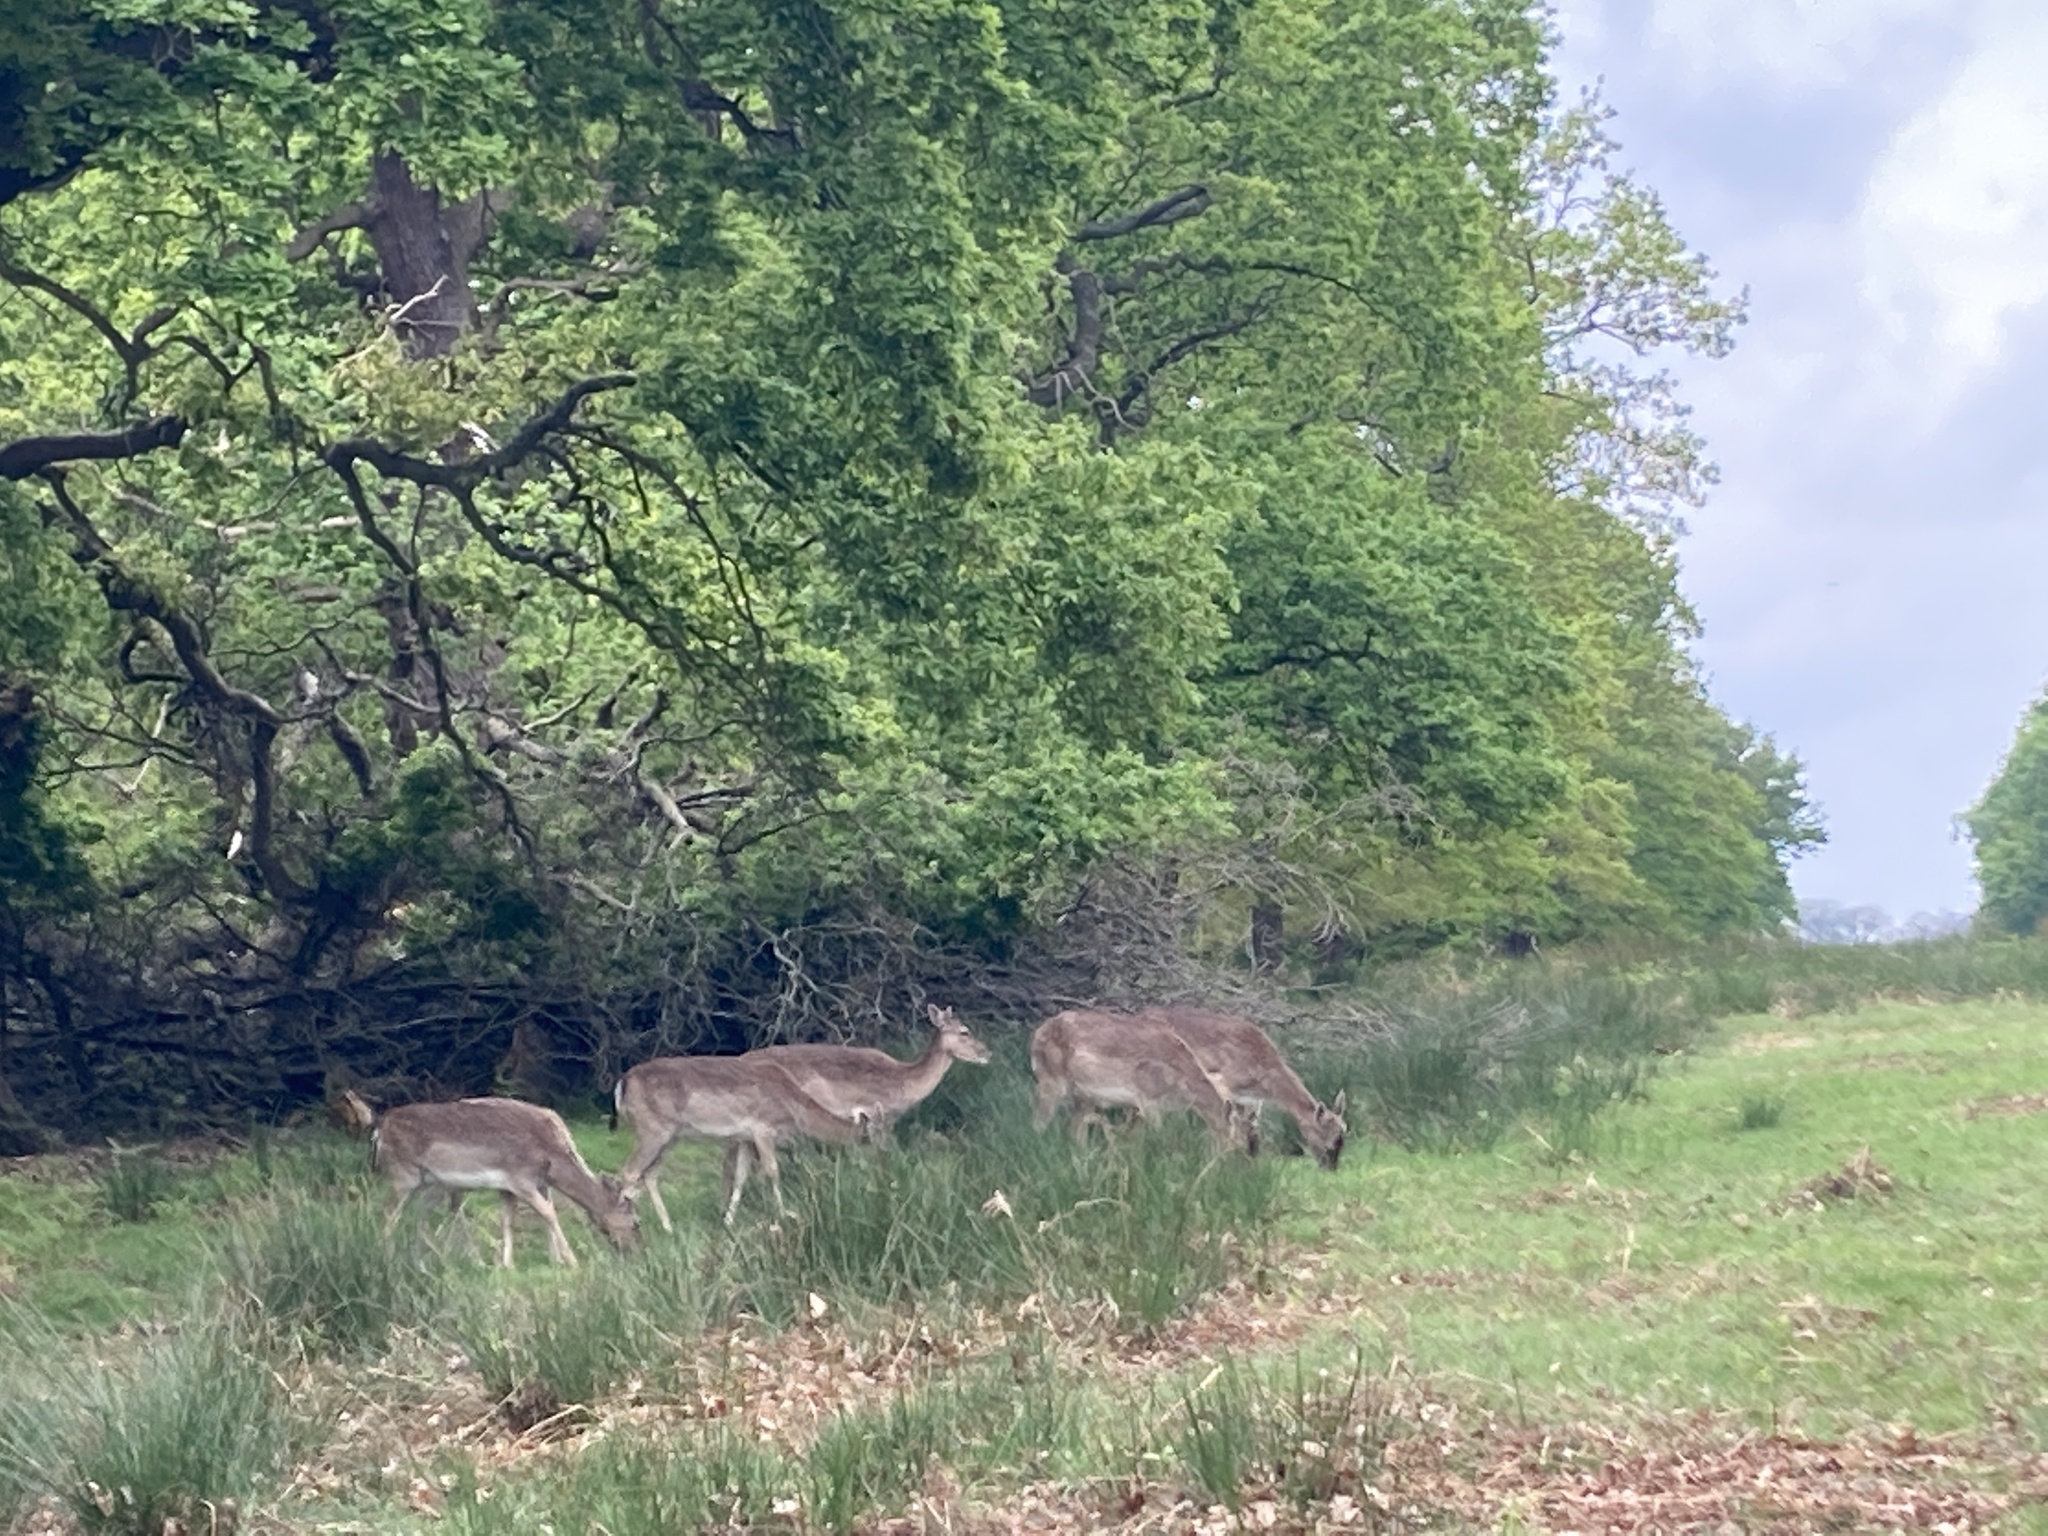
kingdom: Animalia
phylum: Chordata
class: Mammalia
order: Artiodactyla
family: Cervidae
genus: Dama
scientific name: Dama dama
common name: Fallow deer
